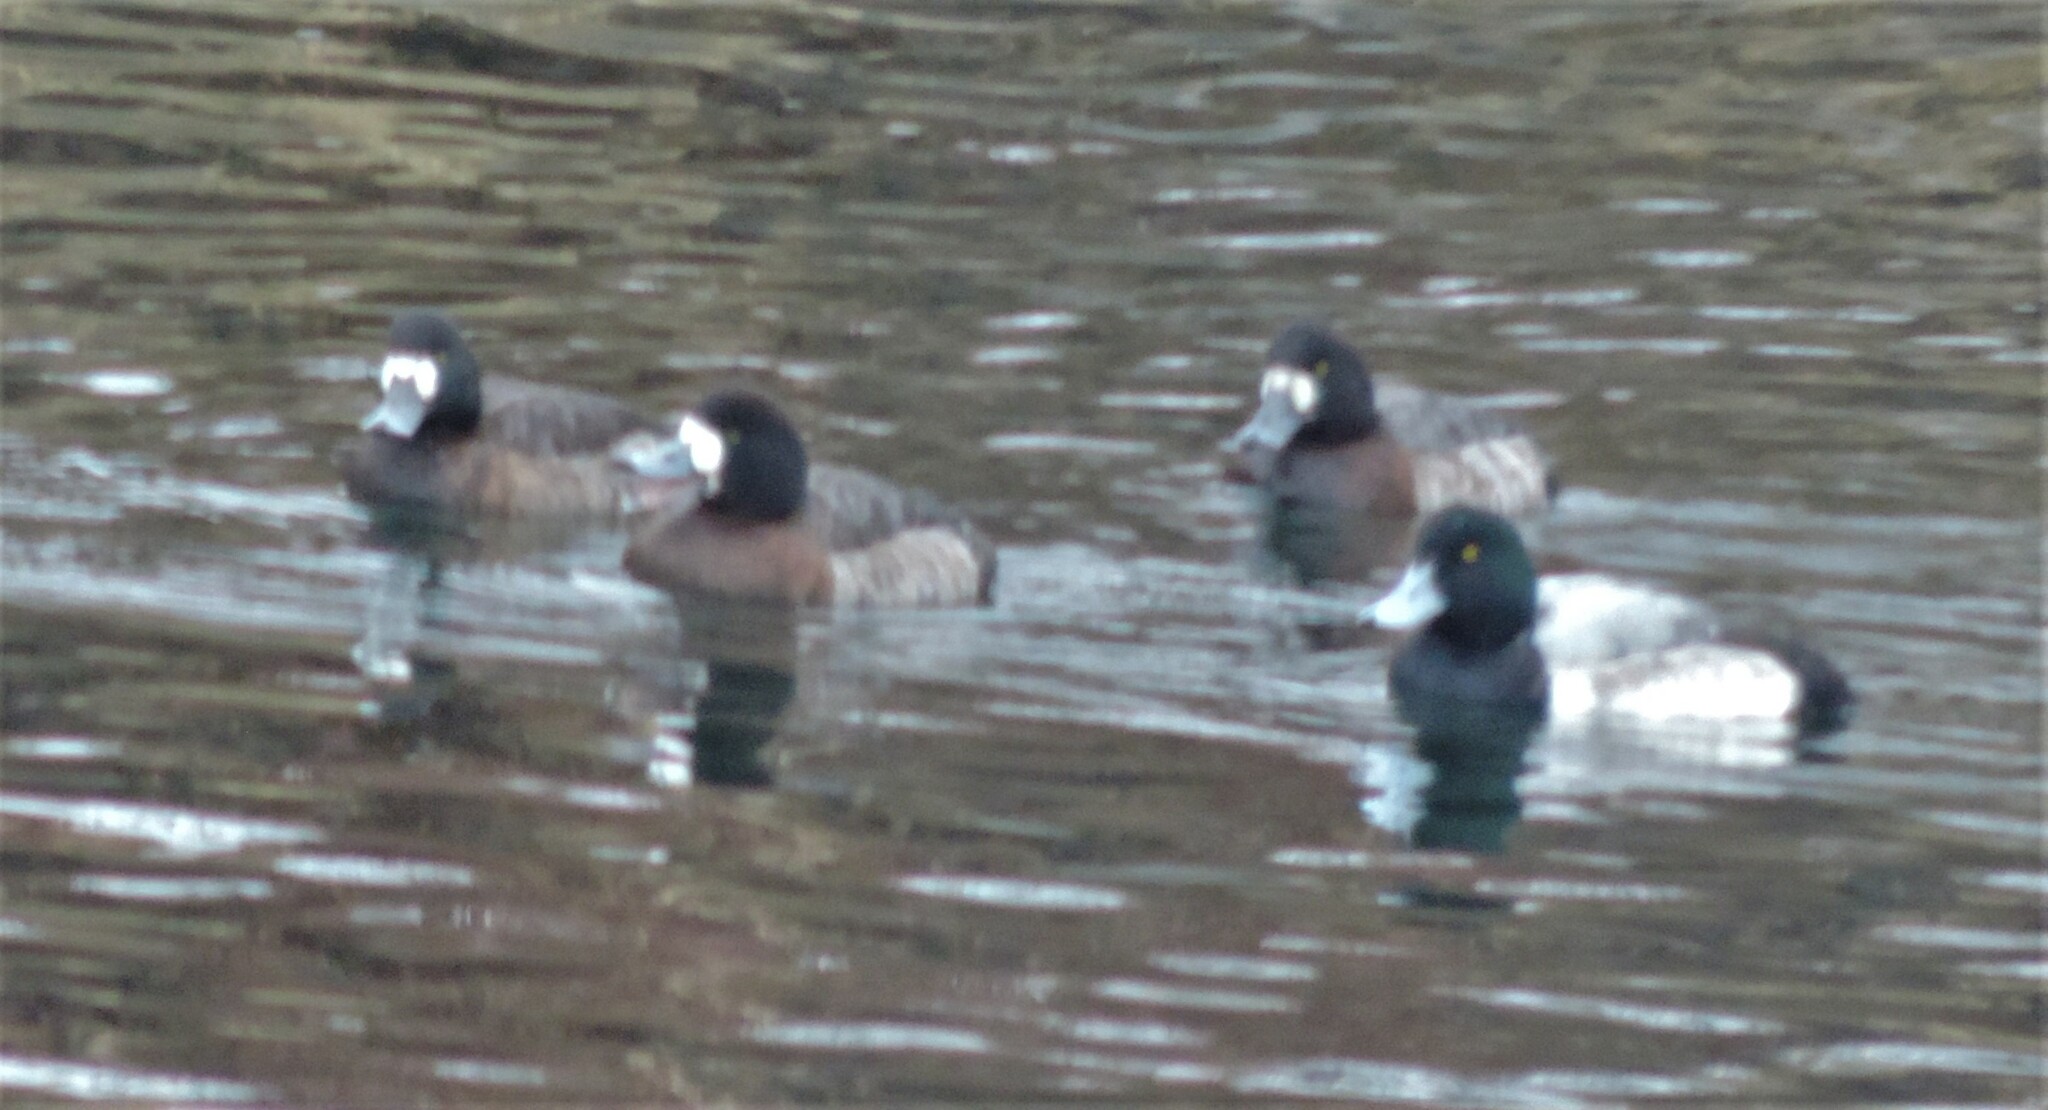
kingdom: Animalia
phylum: Chordata
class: Aves
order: Anseriformes
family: Anatidae
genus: Aythya
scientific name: Aythya marila
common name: Greater scaup
